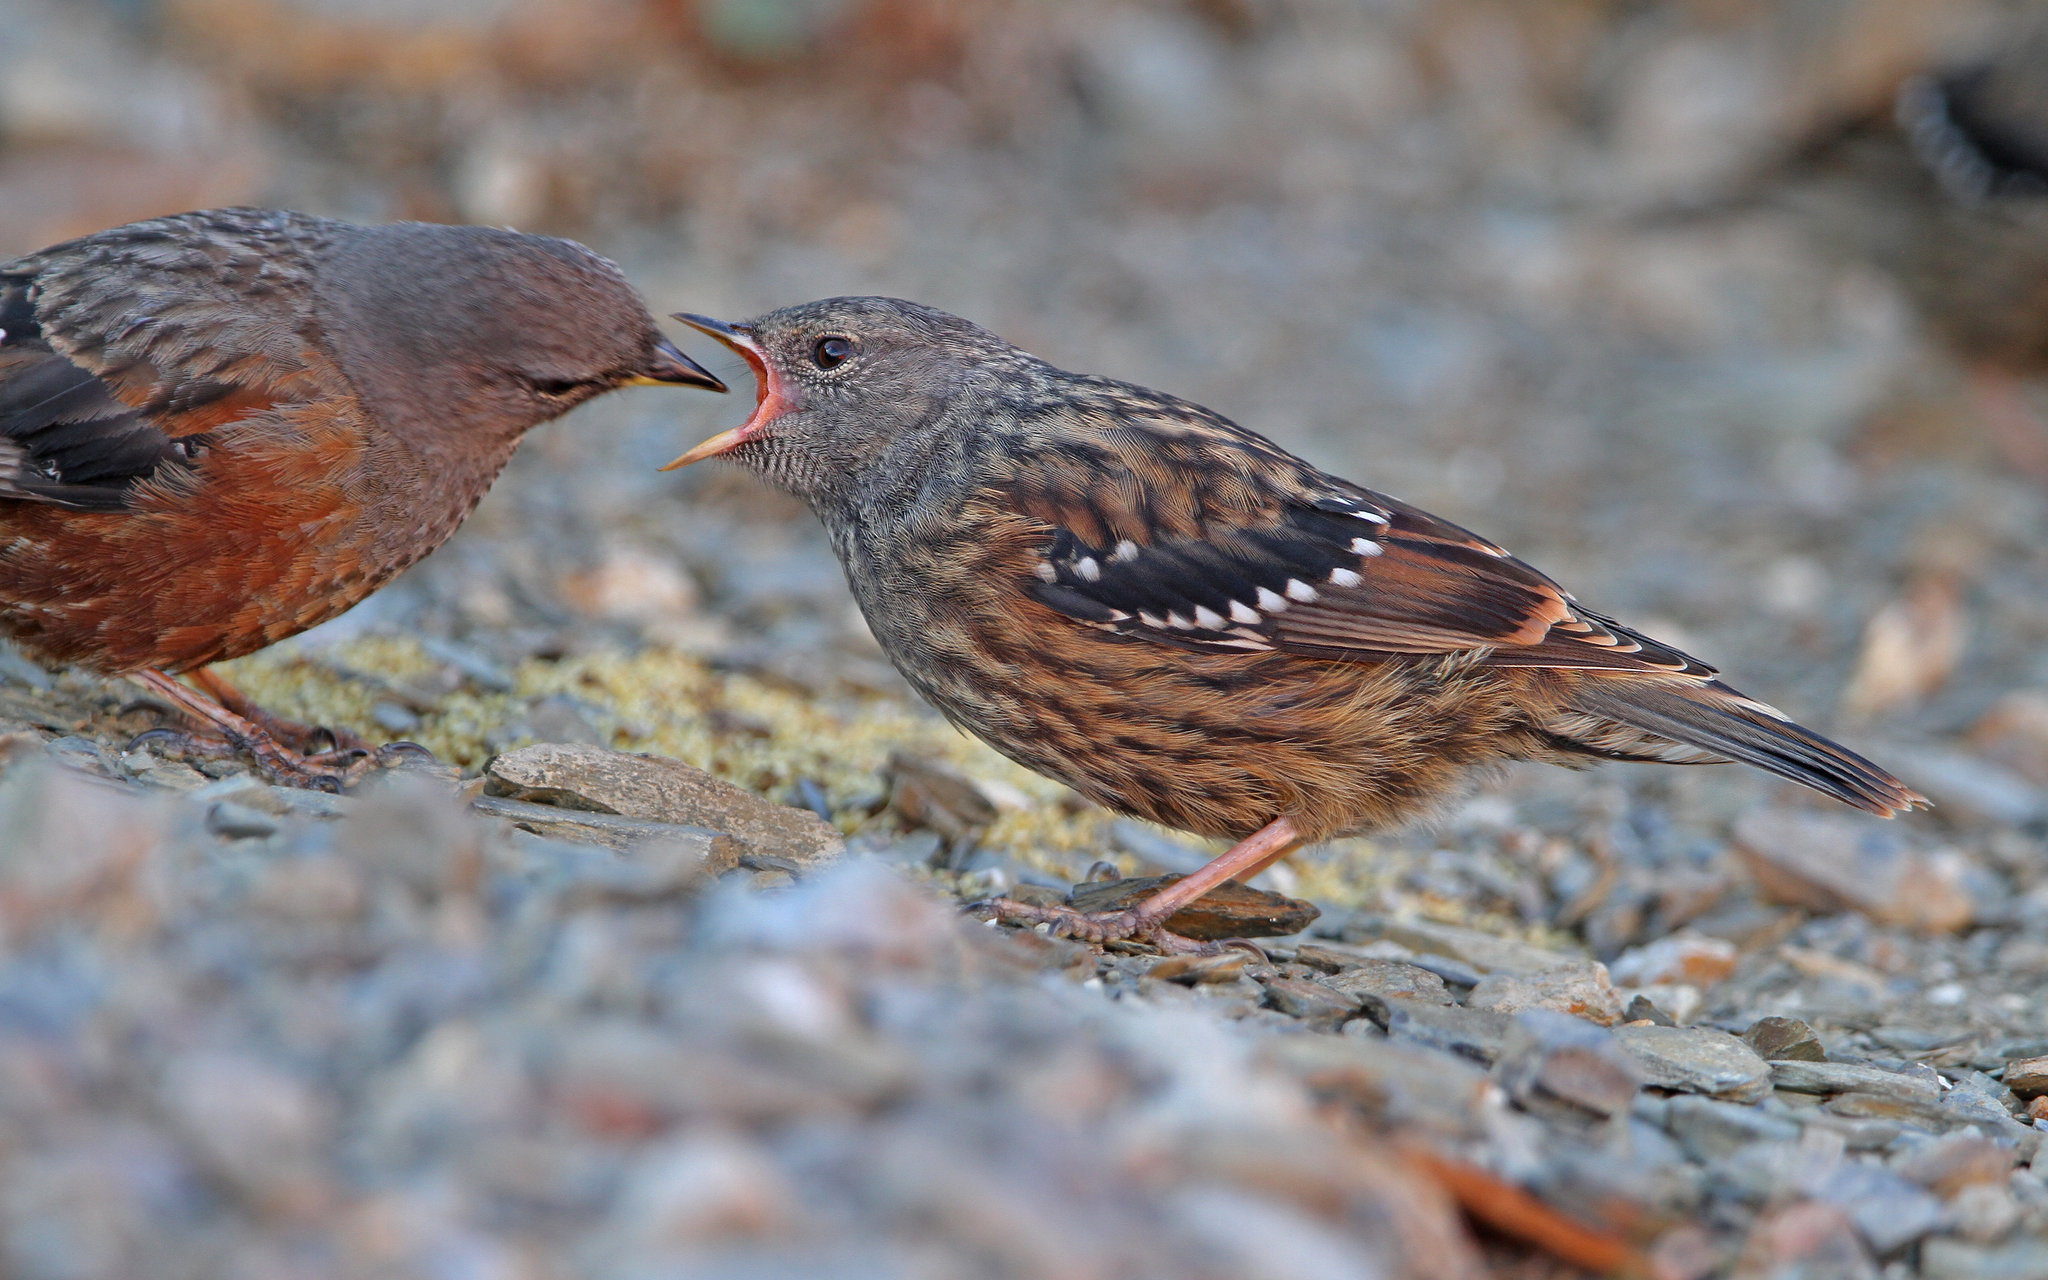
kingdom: Animalia
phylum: Chordata
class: Aves
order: Passeriformes
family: Prunellidae
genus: Prunella
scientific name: Prunella collaris
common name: Alpine accentor
